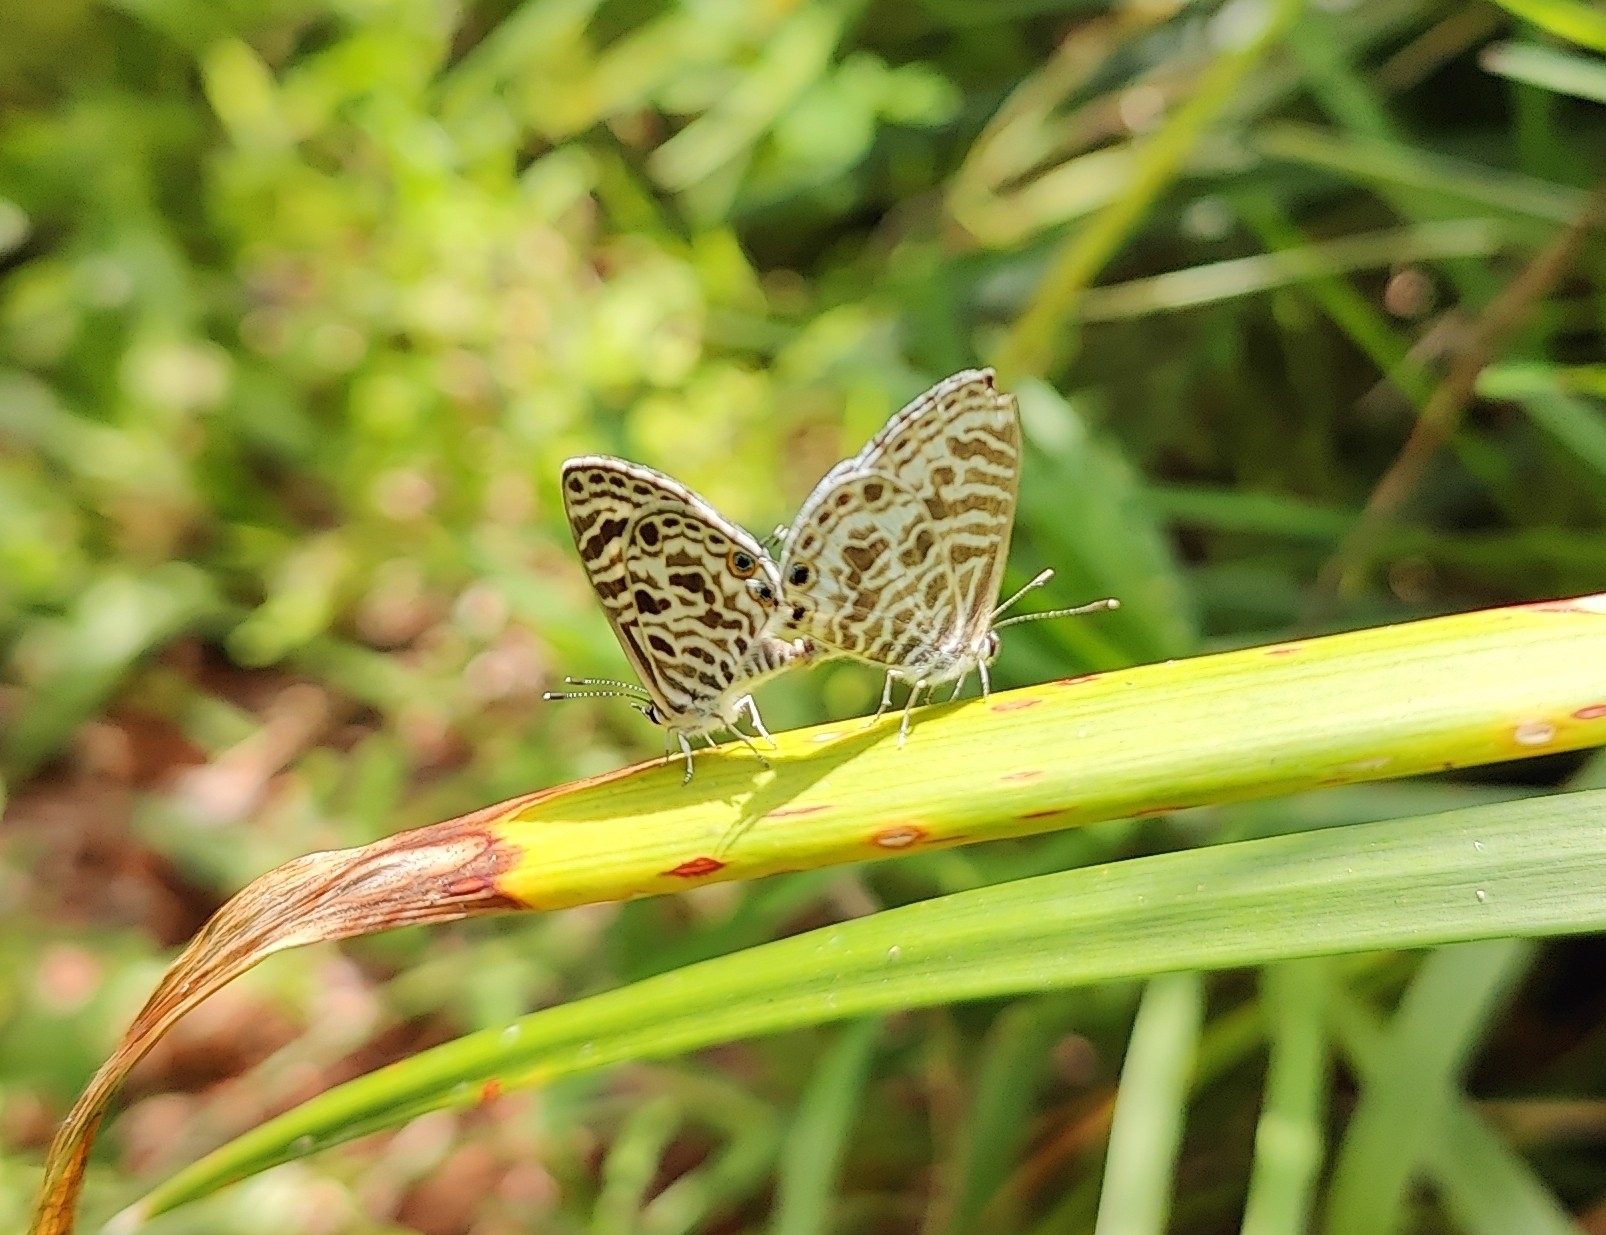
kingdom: Animalia
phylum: Arthropoda
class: Insecta
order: Lepidoptera
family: Lycaenidae
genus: Leptotes
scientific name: Leptotes plinius
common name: Zebra blue
